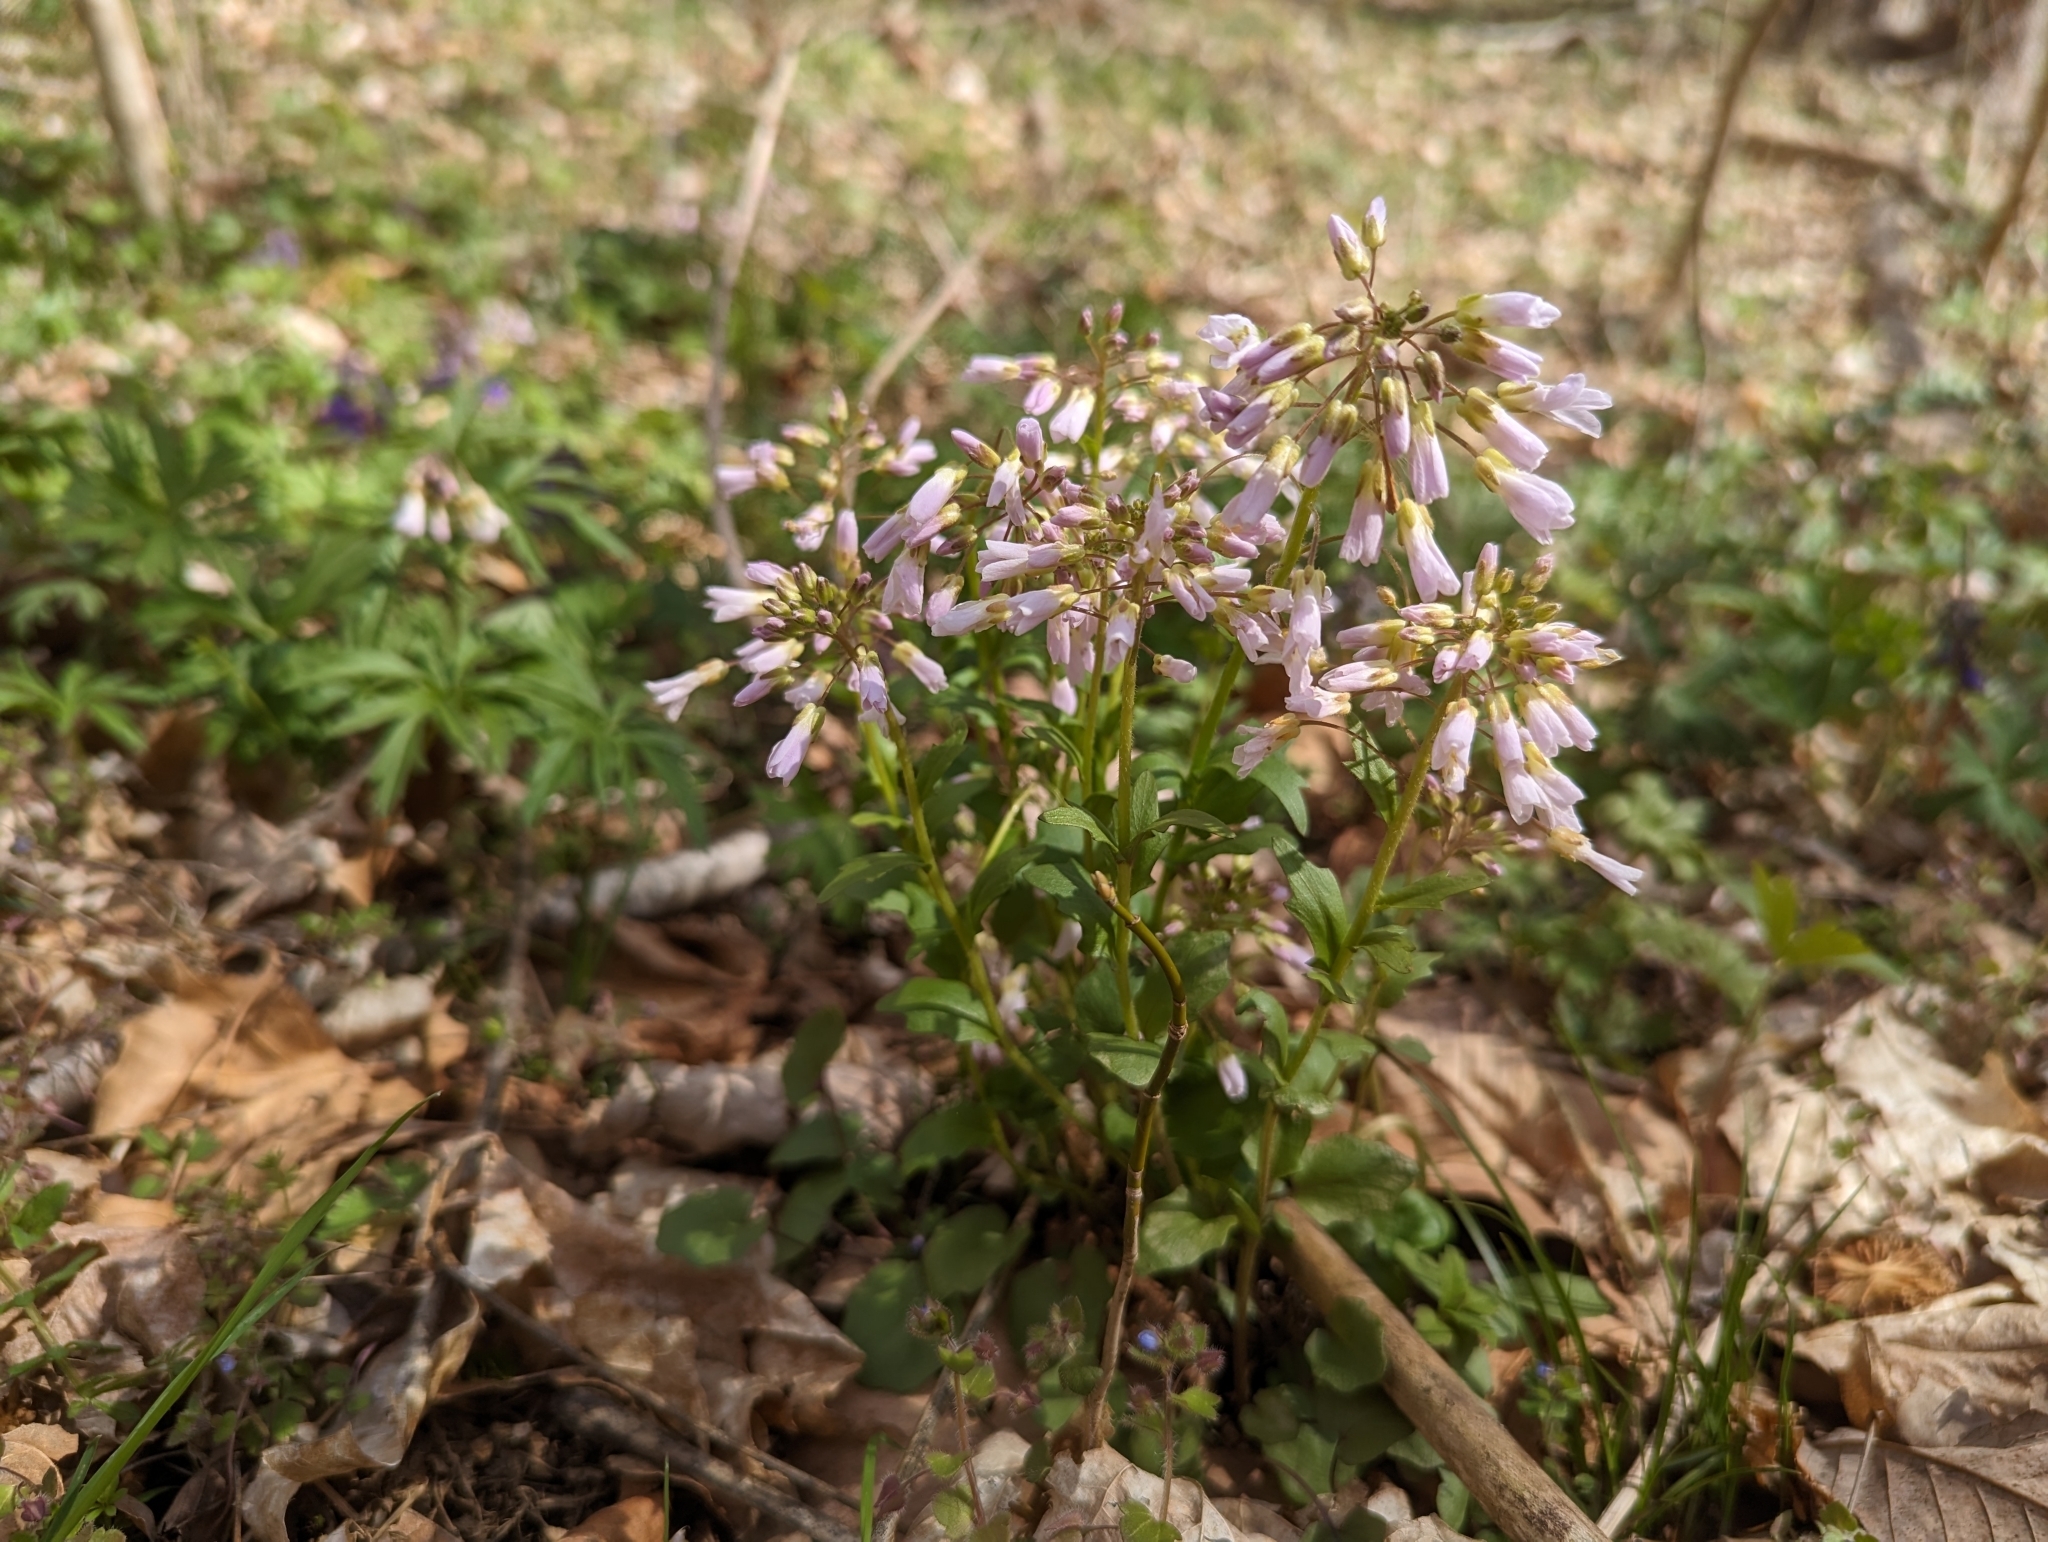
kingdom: Plantae
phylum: Tracheophyta
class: Magnoliopsida
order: Brassicales
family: Brassicaceae
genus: Cardamine
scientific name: Cardamine douglassii
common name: Purple cress
